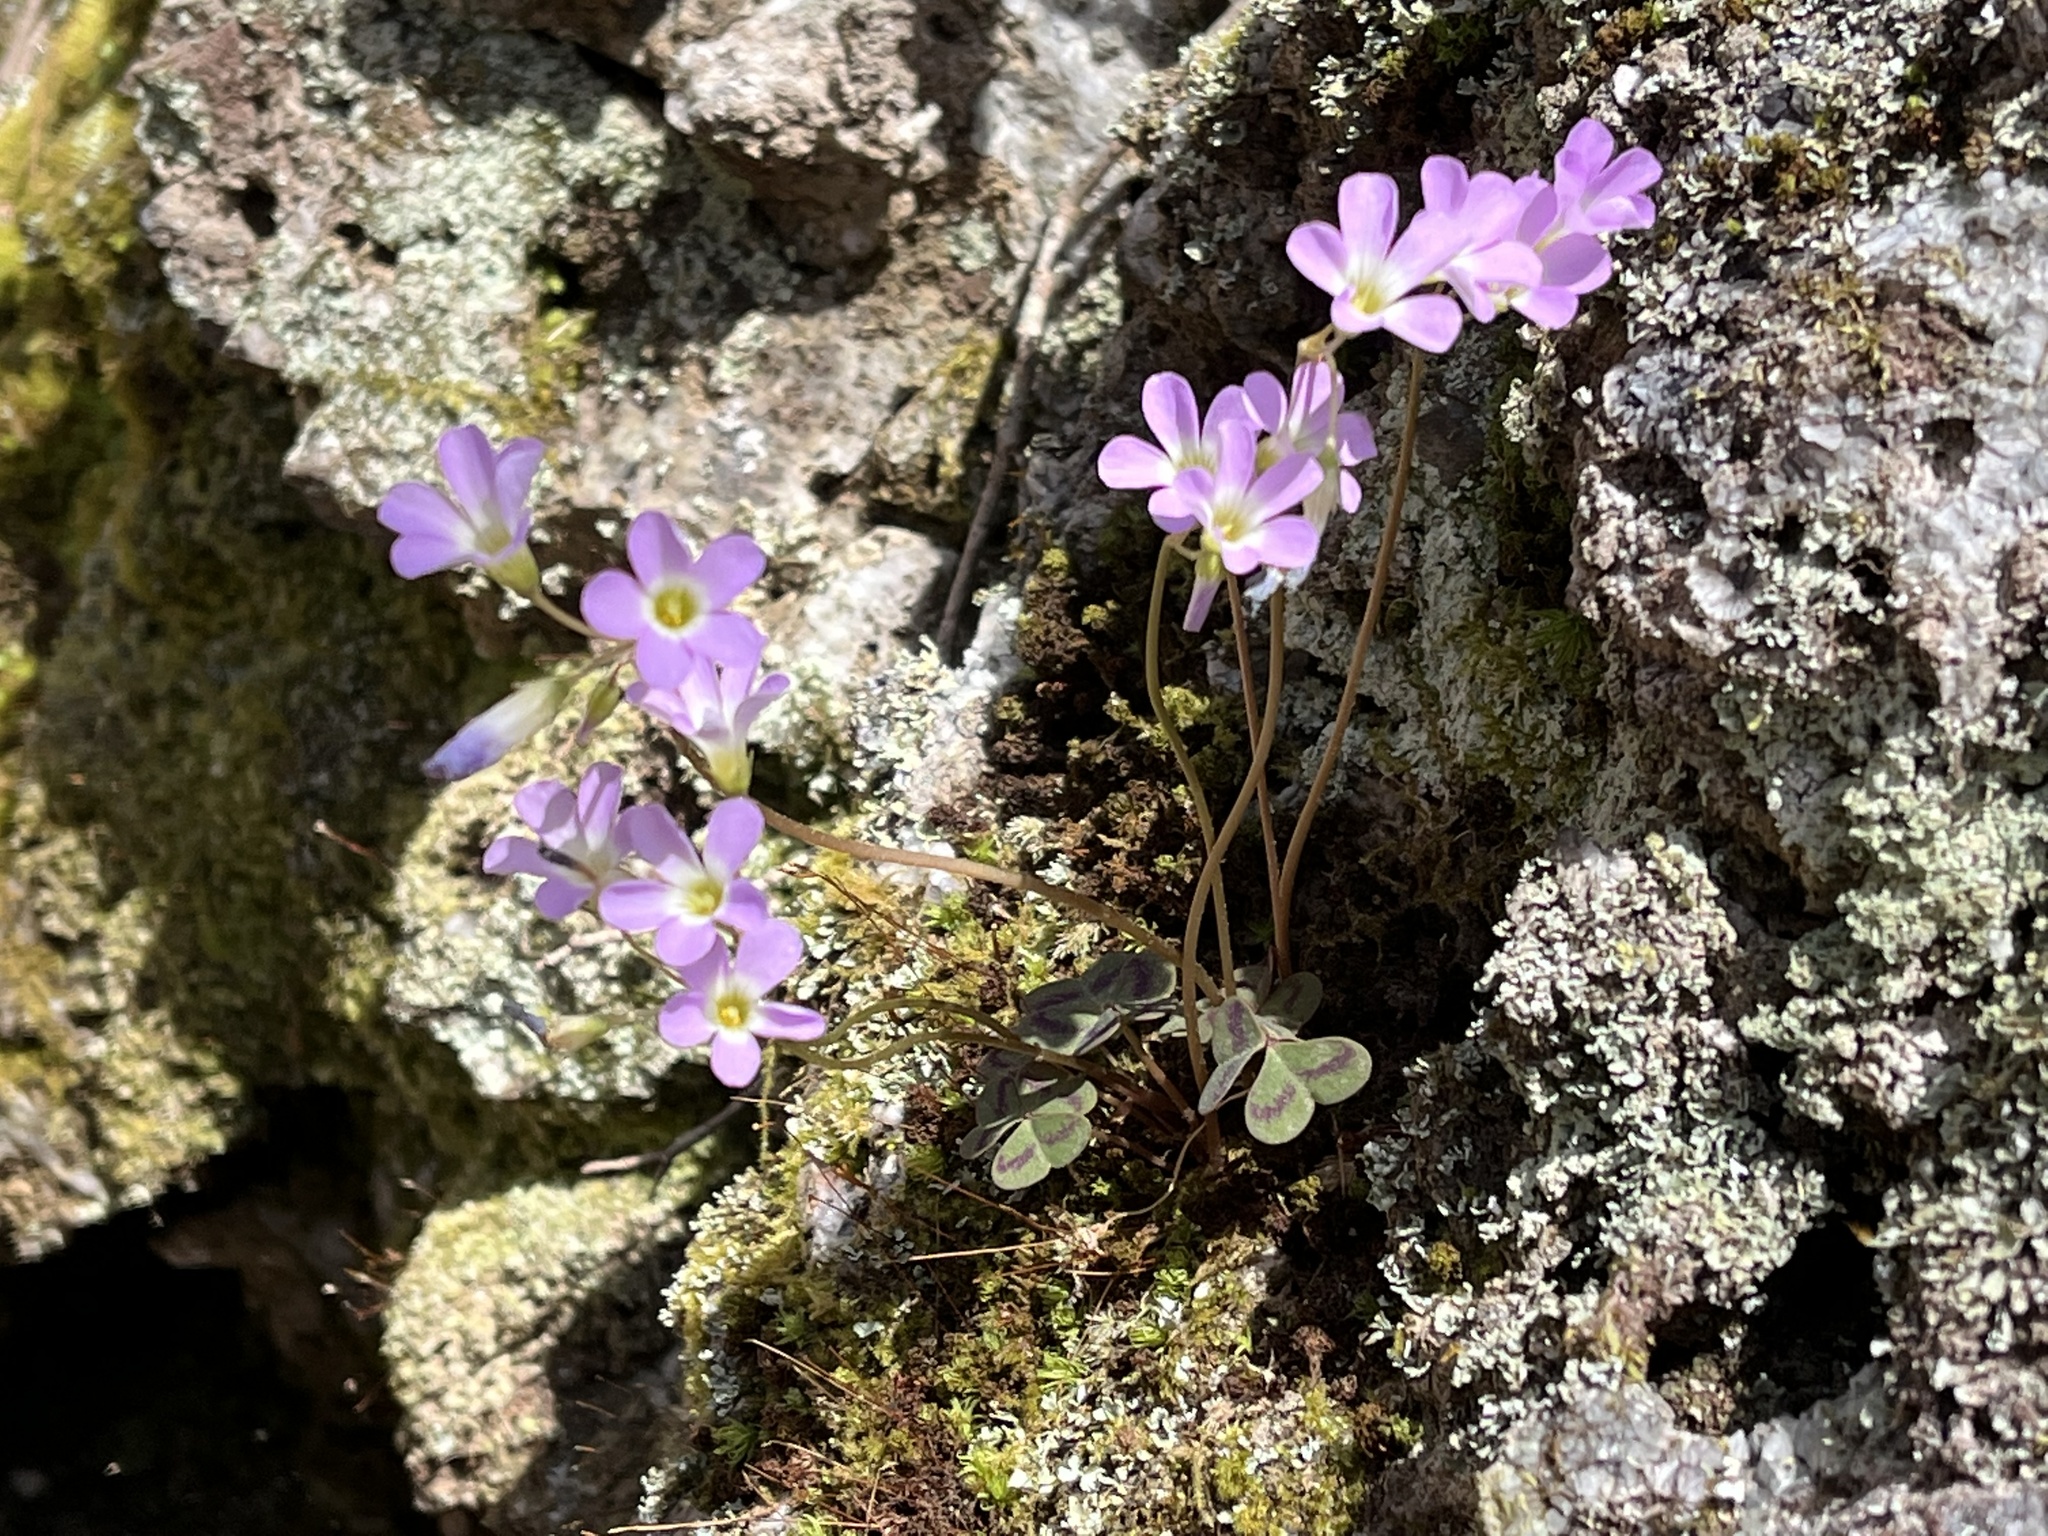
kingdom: Plantae
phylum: Tracheophyta
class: Magnoliopsida
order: Oxalidales
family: Oxalidaceae
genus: Oxalis
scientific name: Oxalis violacea
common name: Violet wood-sorrel
